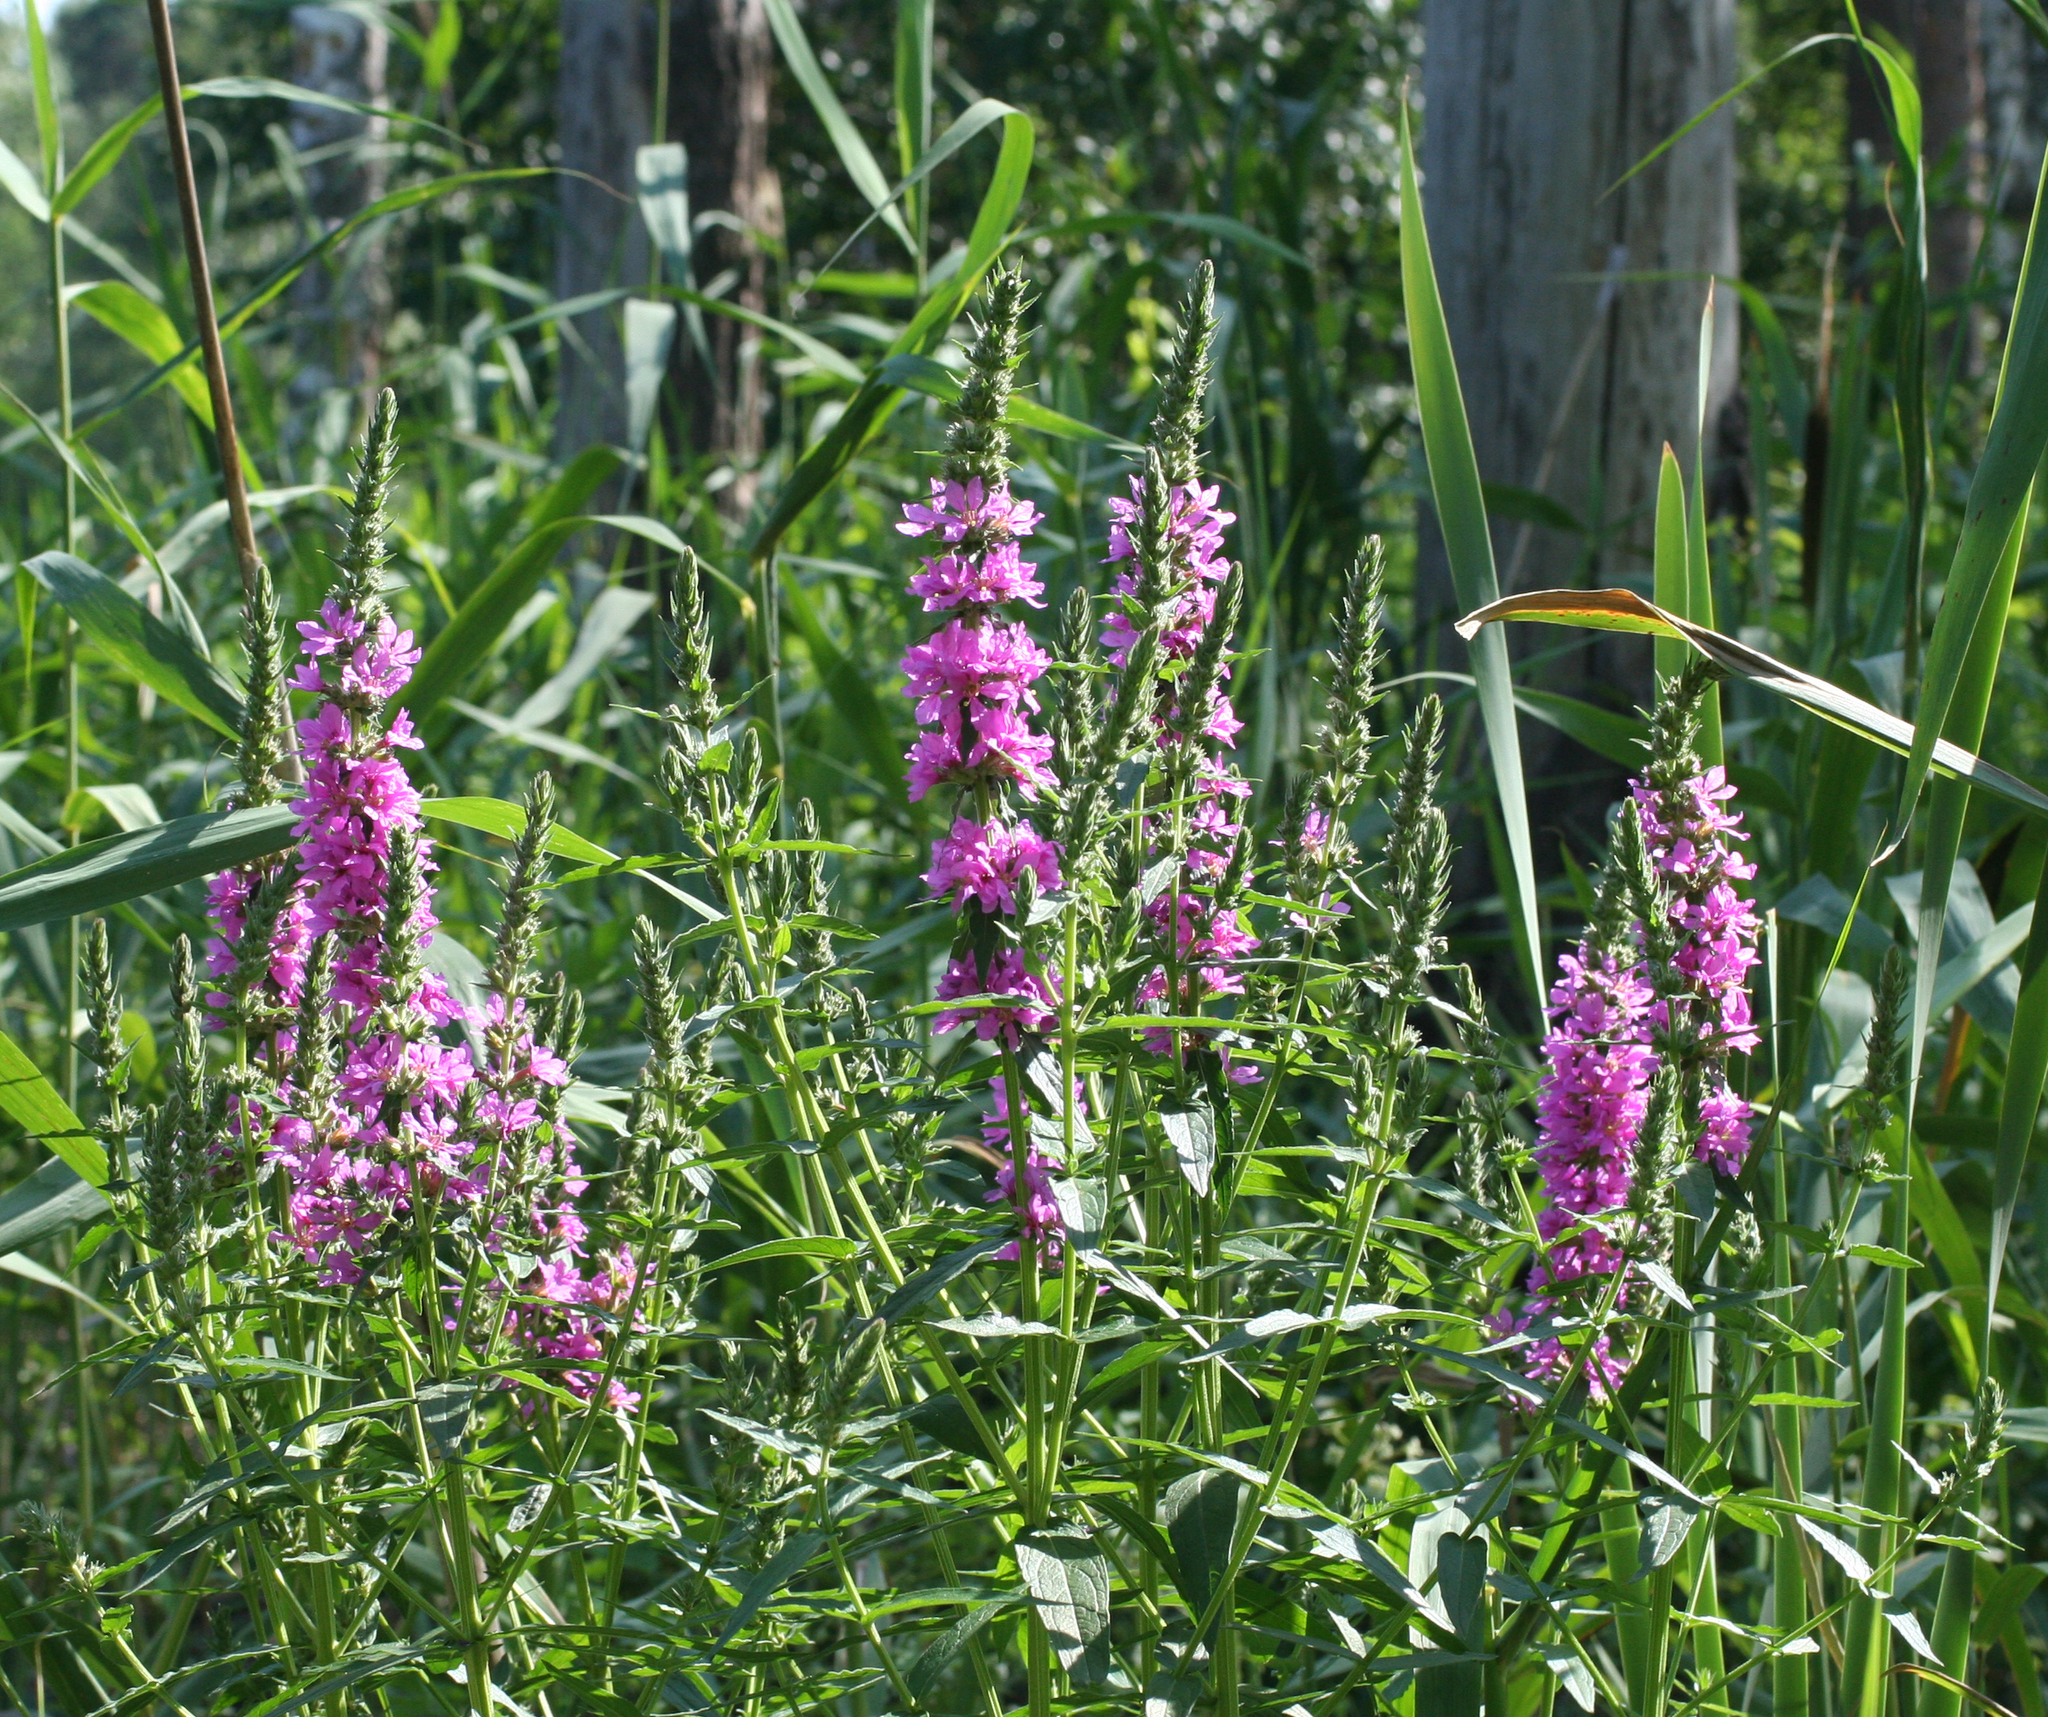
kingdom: Plantae
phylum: Tracheophyta
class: Magnoliopsida
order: Myrtales
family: Lythraceae
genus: Lythrum
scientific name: Lythrum salicaria
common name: Purple loosestrife
